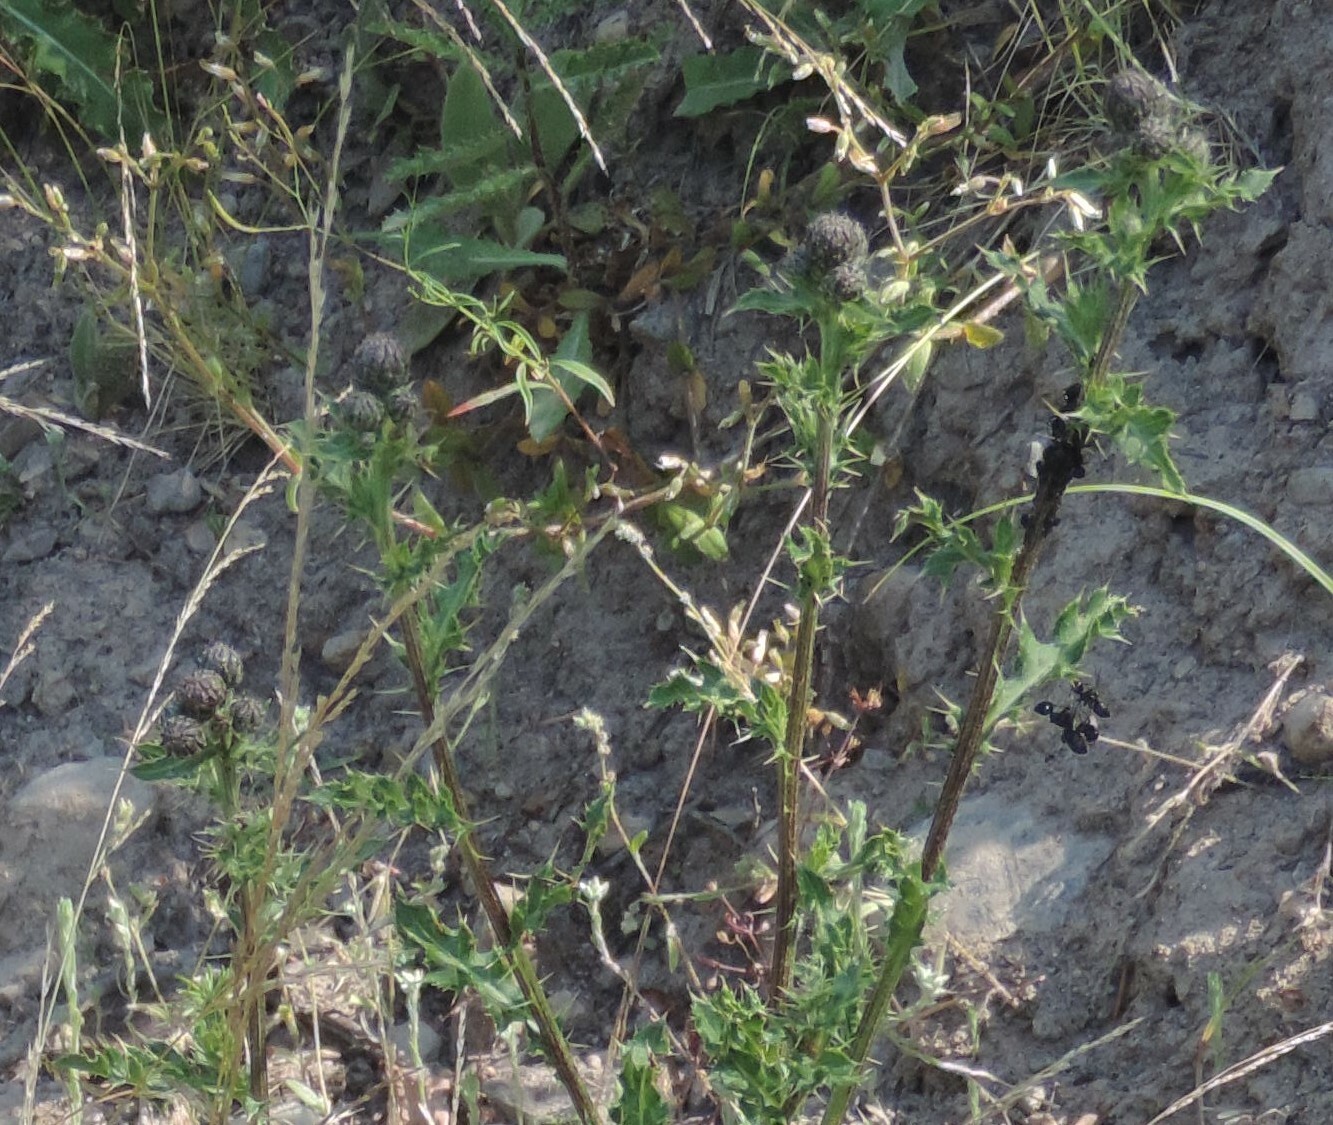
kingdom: Plantae
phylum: Tracheophyta
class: Magnoliopsida
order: Asterales
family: Asteraceae
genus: Cirsium
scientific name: Cirsium arvense
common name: Creeping thistle
